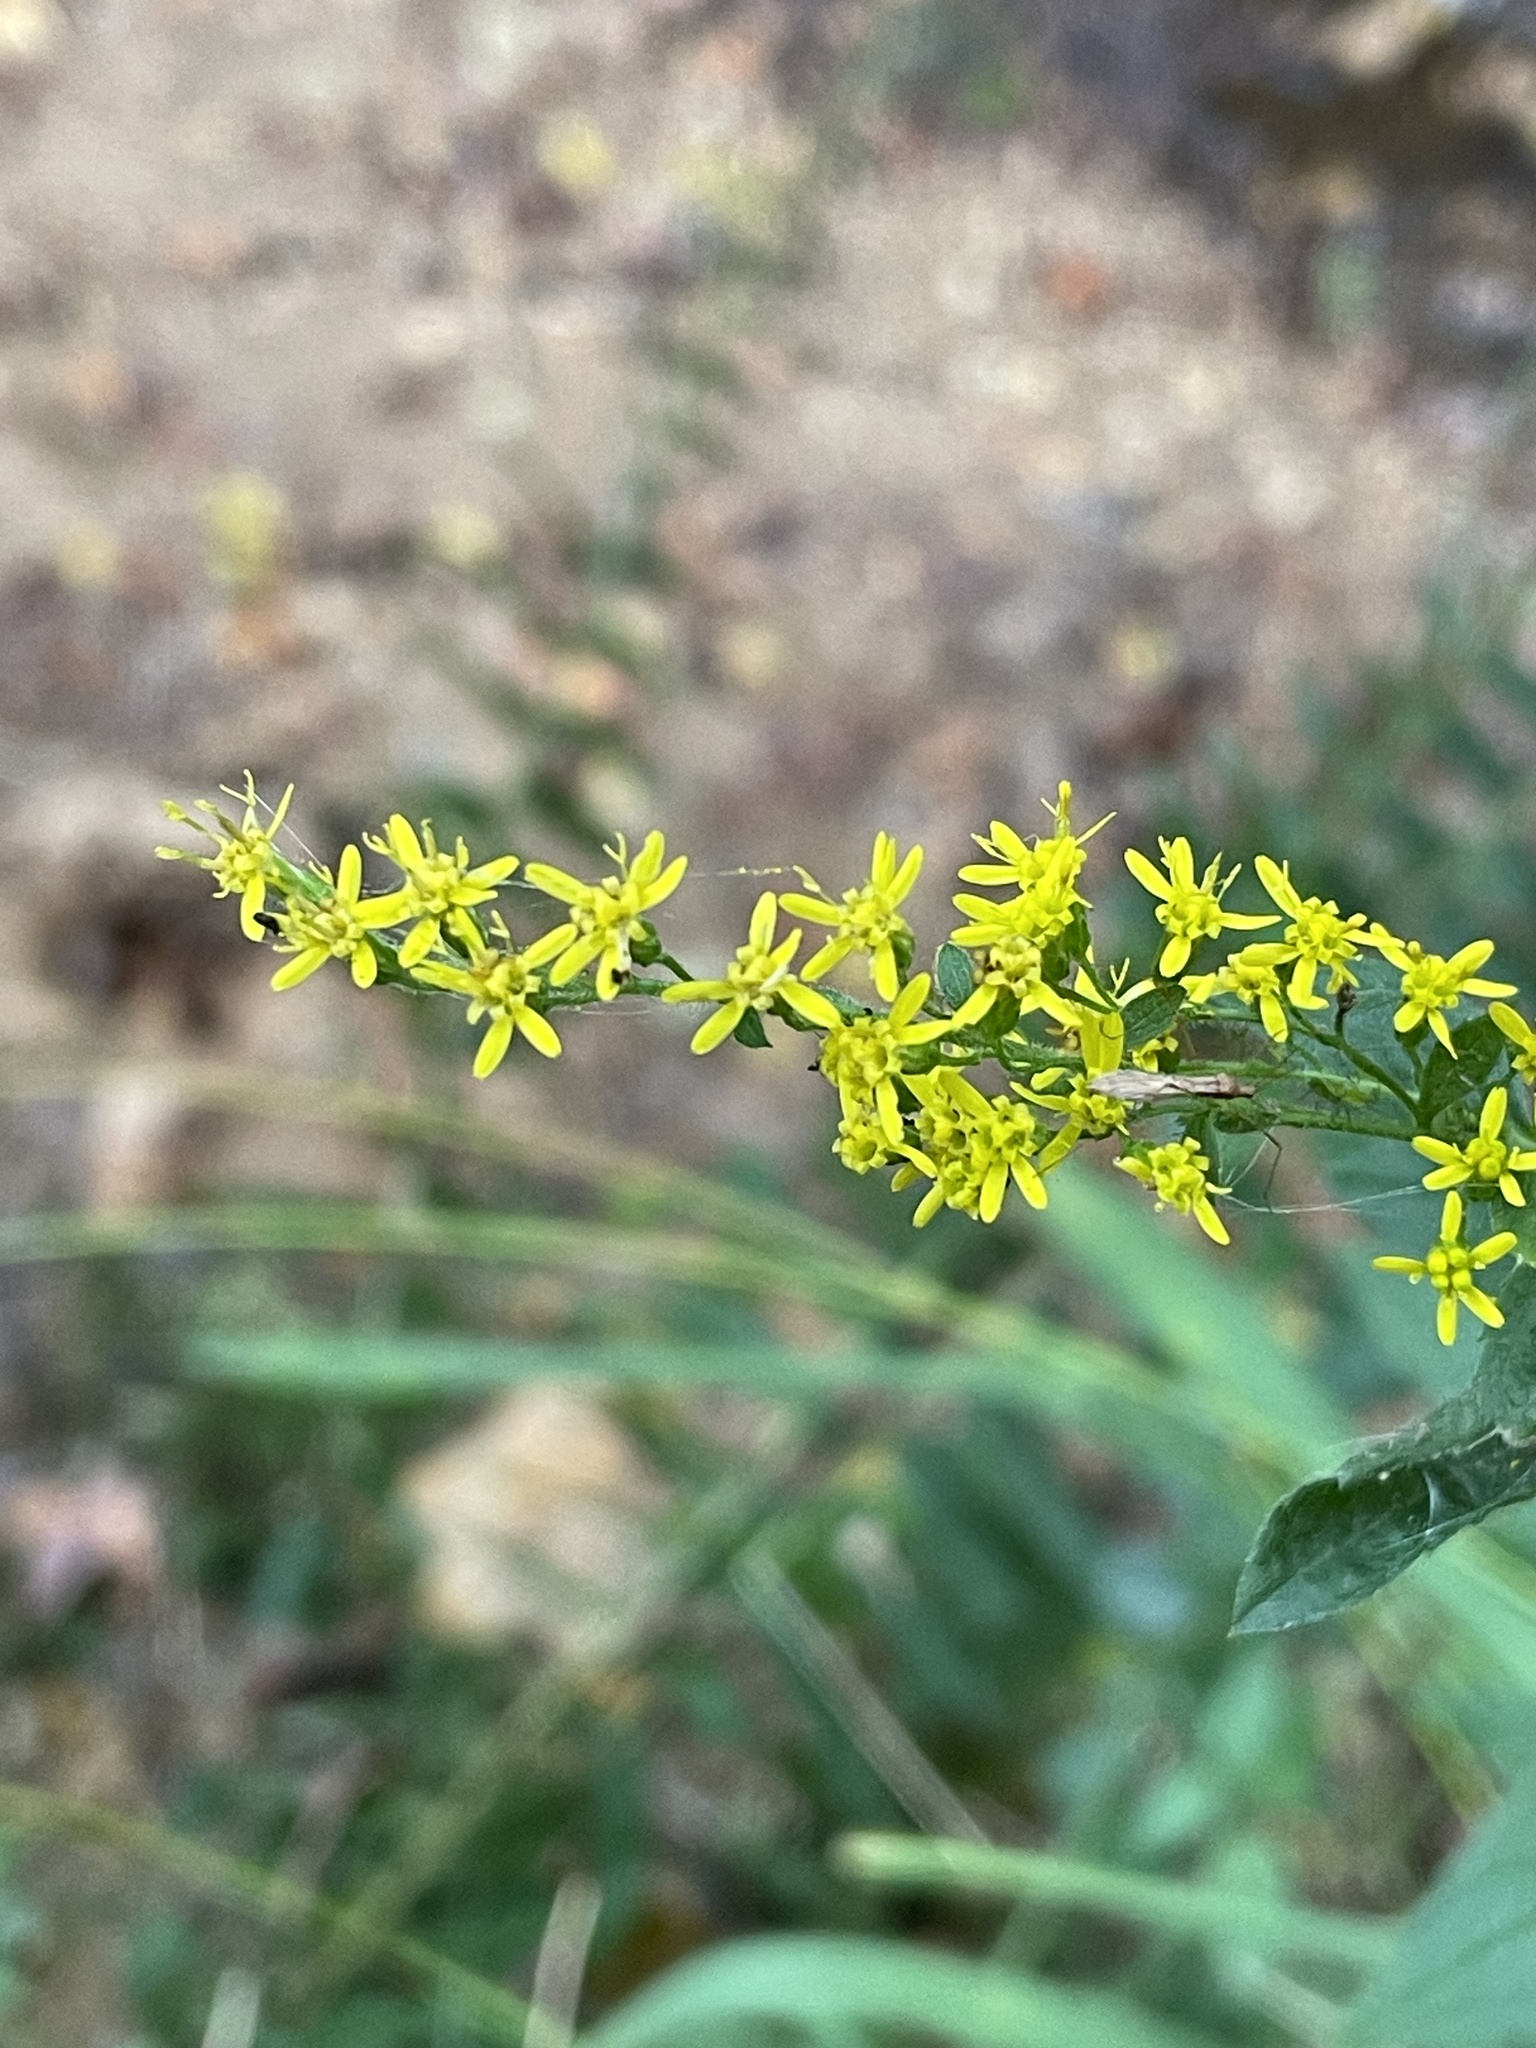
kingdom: Plantae
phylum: Tracheophyta
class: Magnoliopsida
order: Asterales
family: Asteraceae
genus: Solidago
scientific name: Solidago rugosa
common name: Rough-stemmed goldenrod
